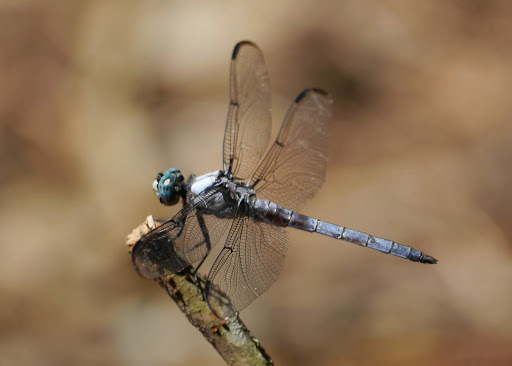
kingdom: Animalia
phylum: Arthropoda
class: Insecta
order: Odonata
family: Libellulidae
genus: Libellula
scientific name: Libellula vibrans
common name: Great blue skimmer
